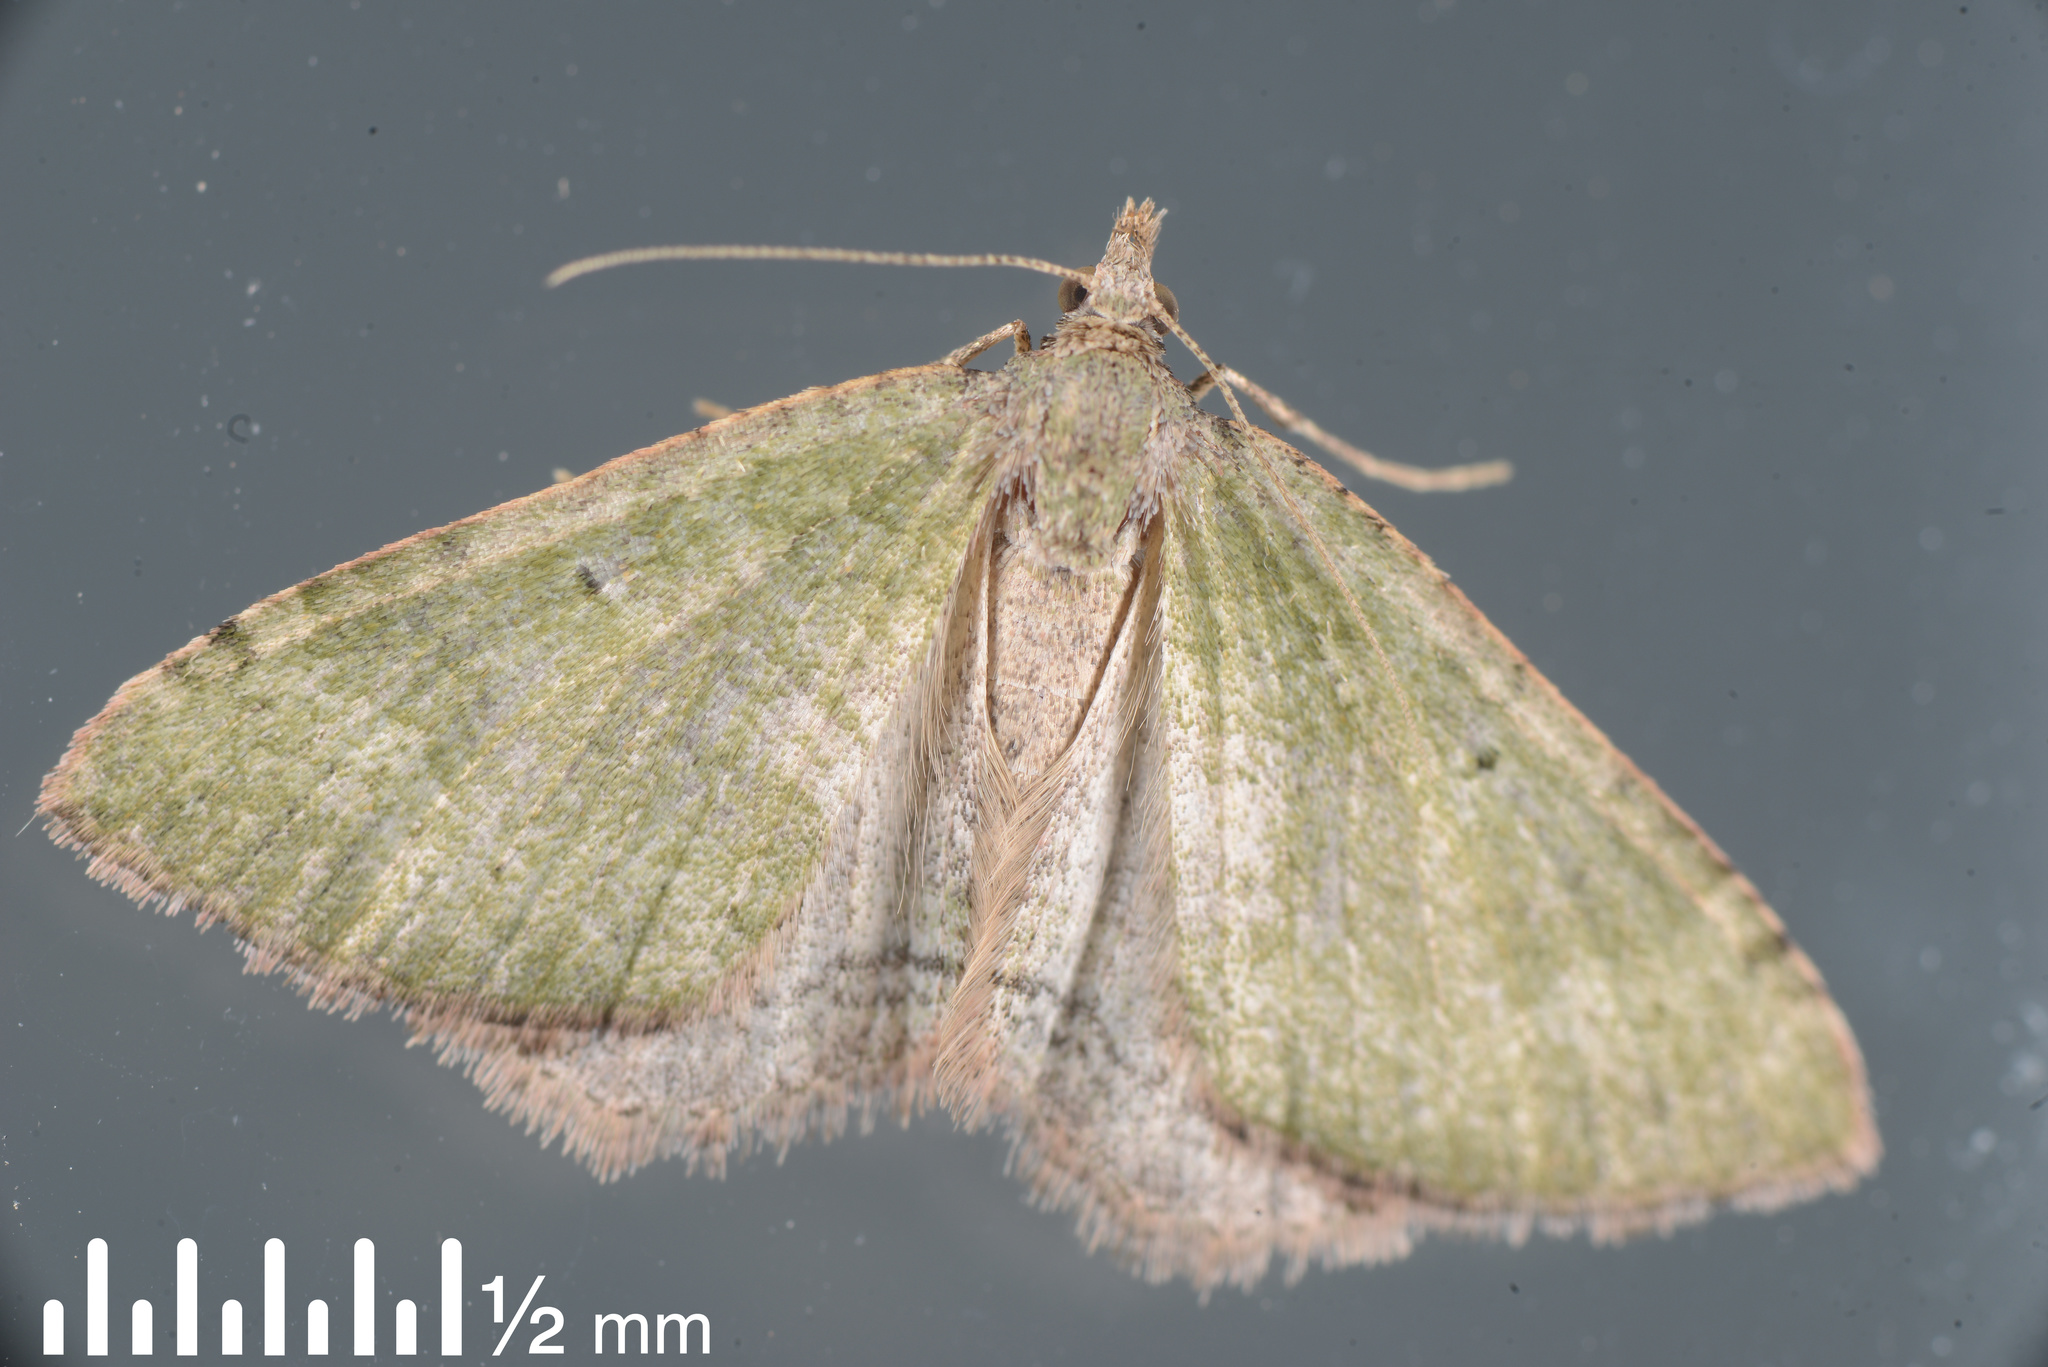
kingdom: Animalia
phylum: Arthropoda
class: Insecta
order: Lepidoptera
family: Geometridae
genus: Epyaxa
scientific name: Epyaxa rosearia
